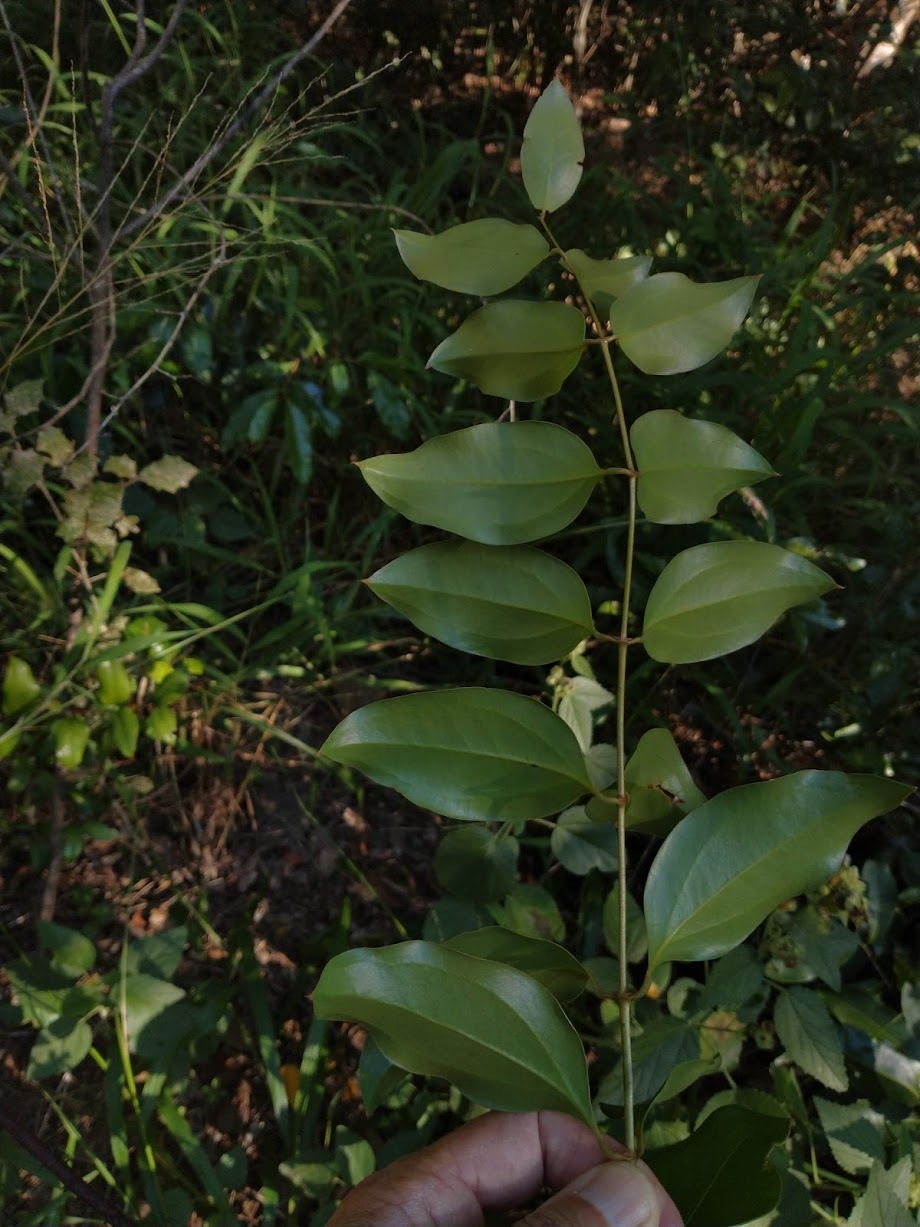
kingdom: Plantae
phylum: Tracheophyta
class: Liliopsida
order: Liliales
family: Ripogonaceae
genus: Ripogonum
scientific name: Ripogonum brevifolium
